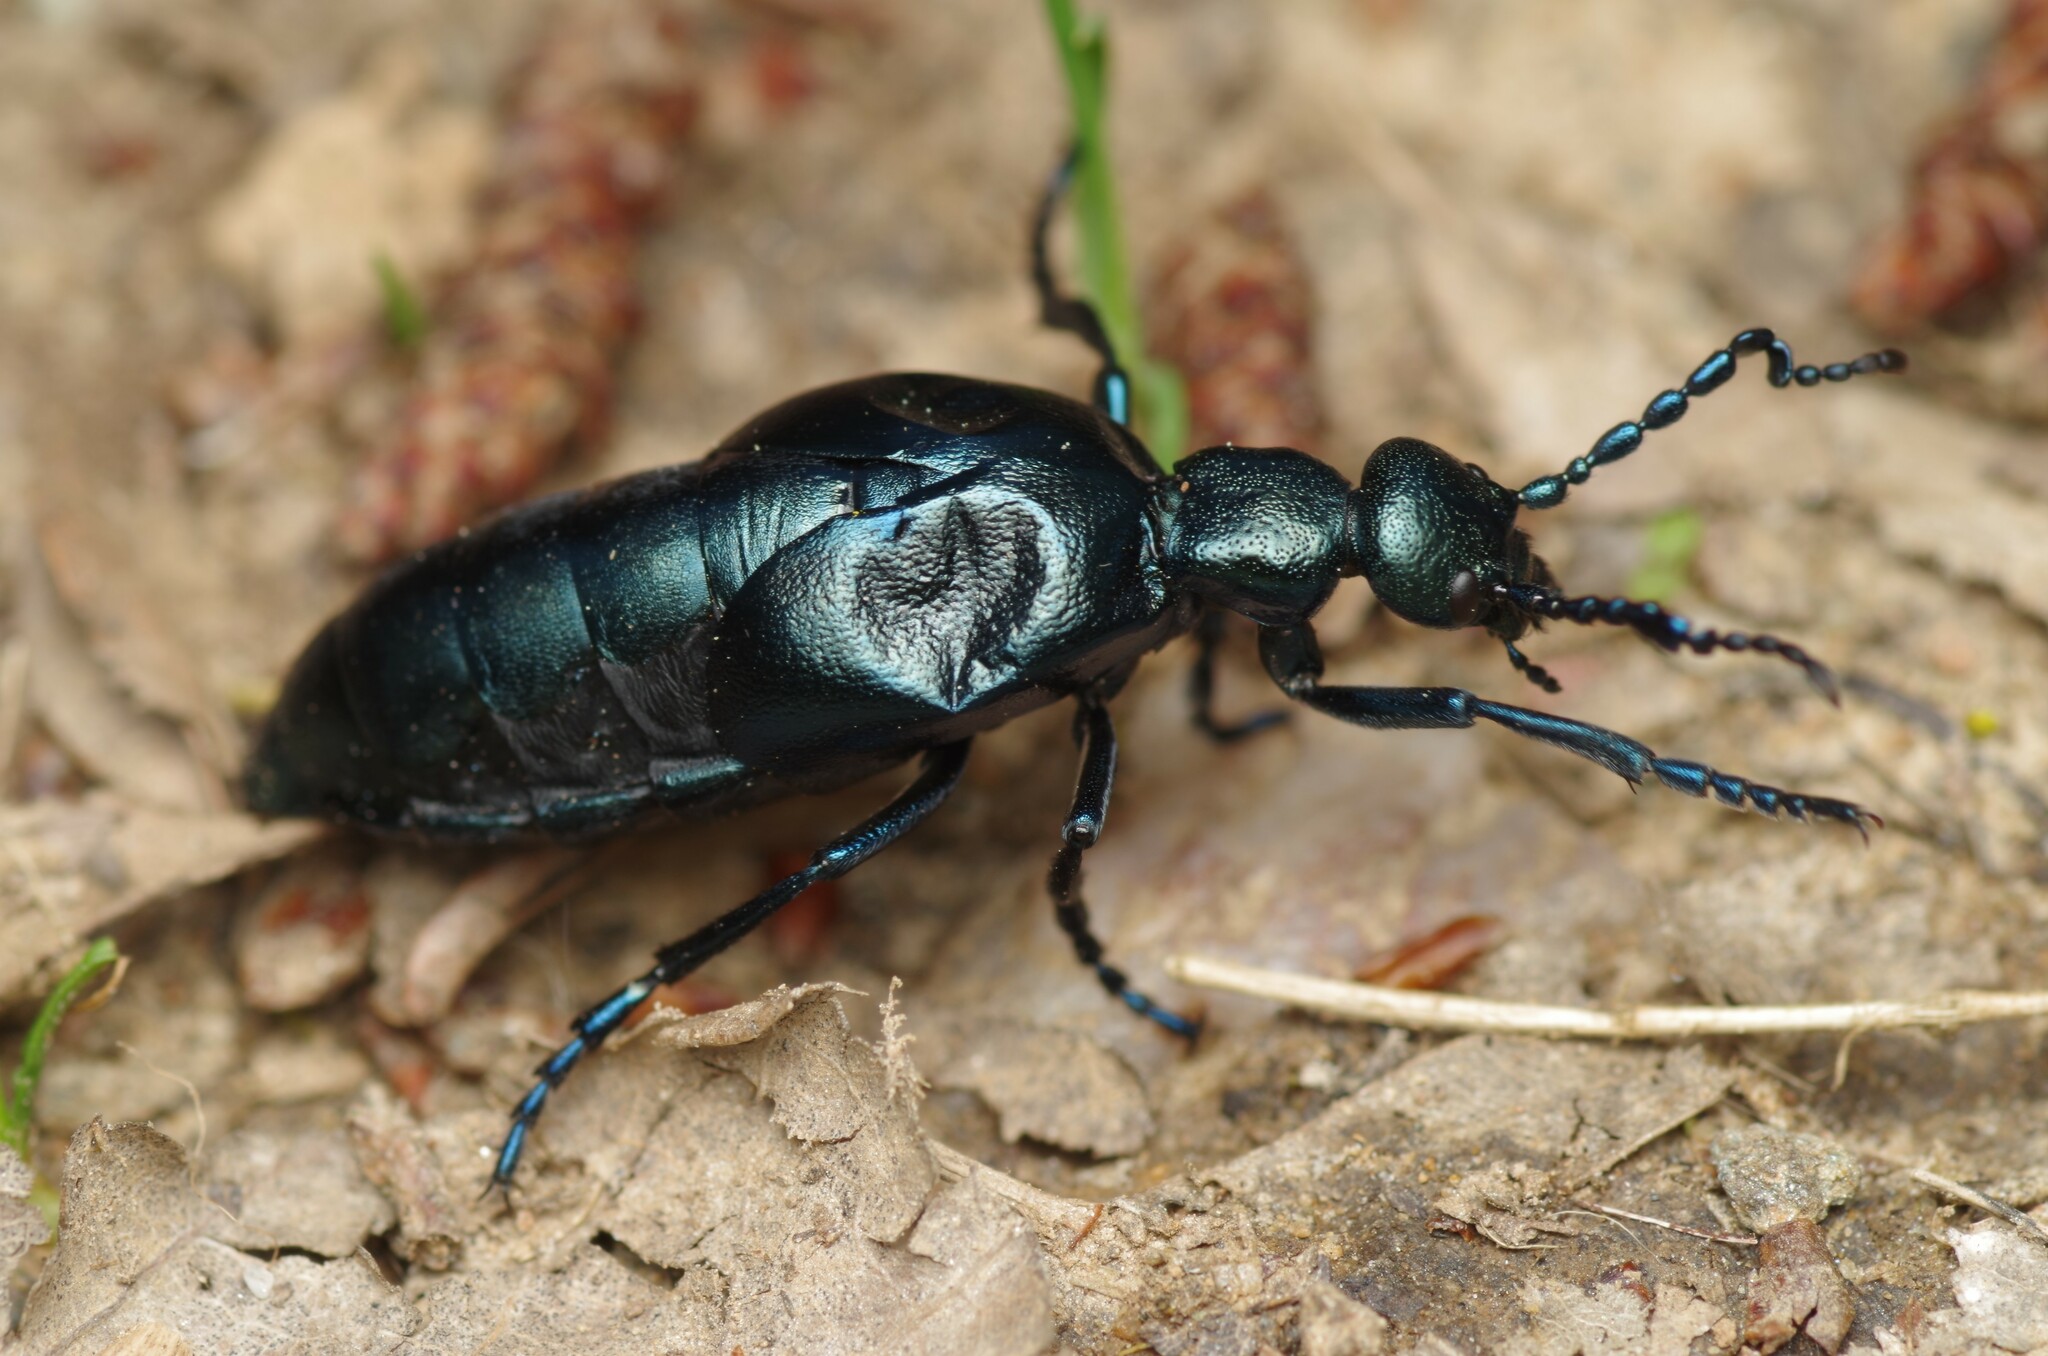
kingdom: Animalia
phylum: Arthropoda
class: Insecta
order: Coleoptera
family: Meloidae
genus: Meloe
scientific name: Meloe violaceus
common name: Violet oil-beetle
